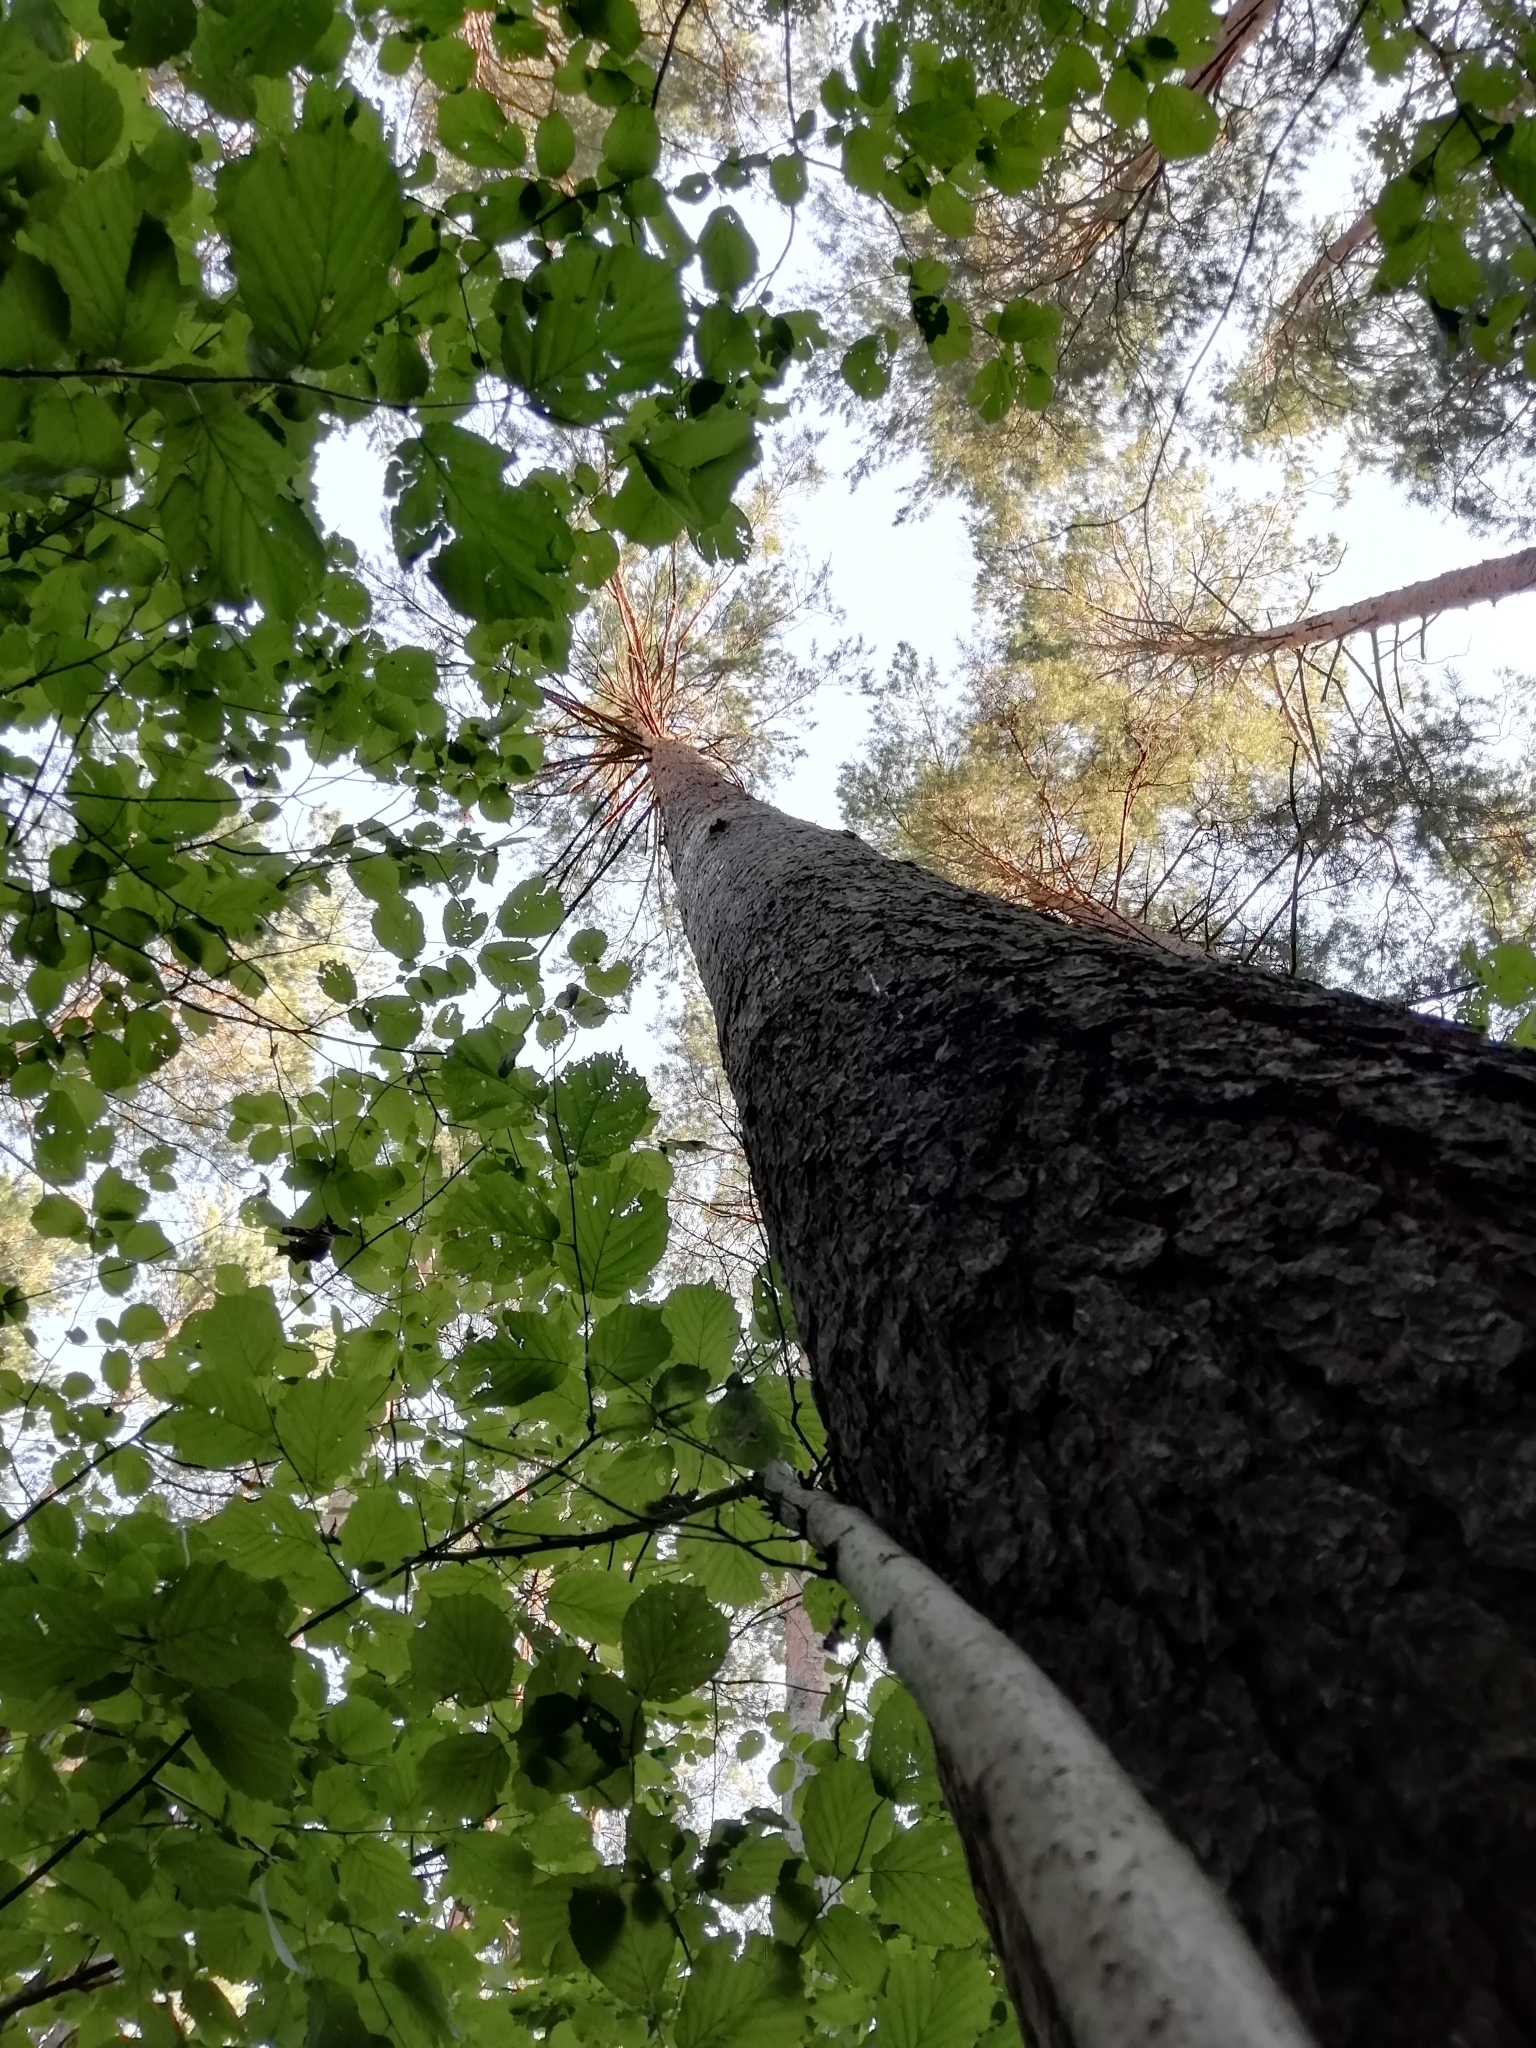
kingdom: Plantae
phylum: Tracheophyta
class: Pinopsida
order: Pinales
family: Pinaceae
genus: Pinus
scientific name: Pinus sylvestris
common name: Scots pine
